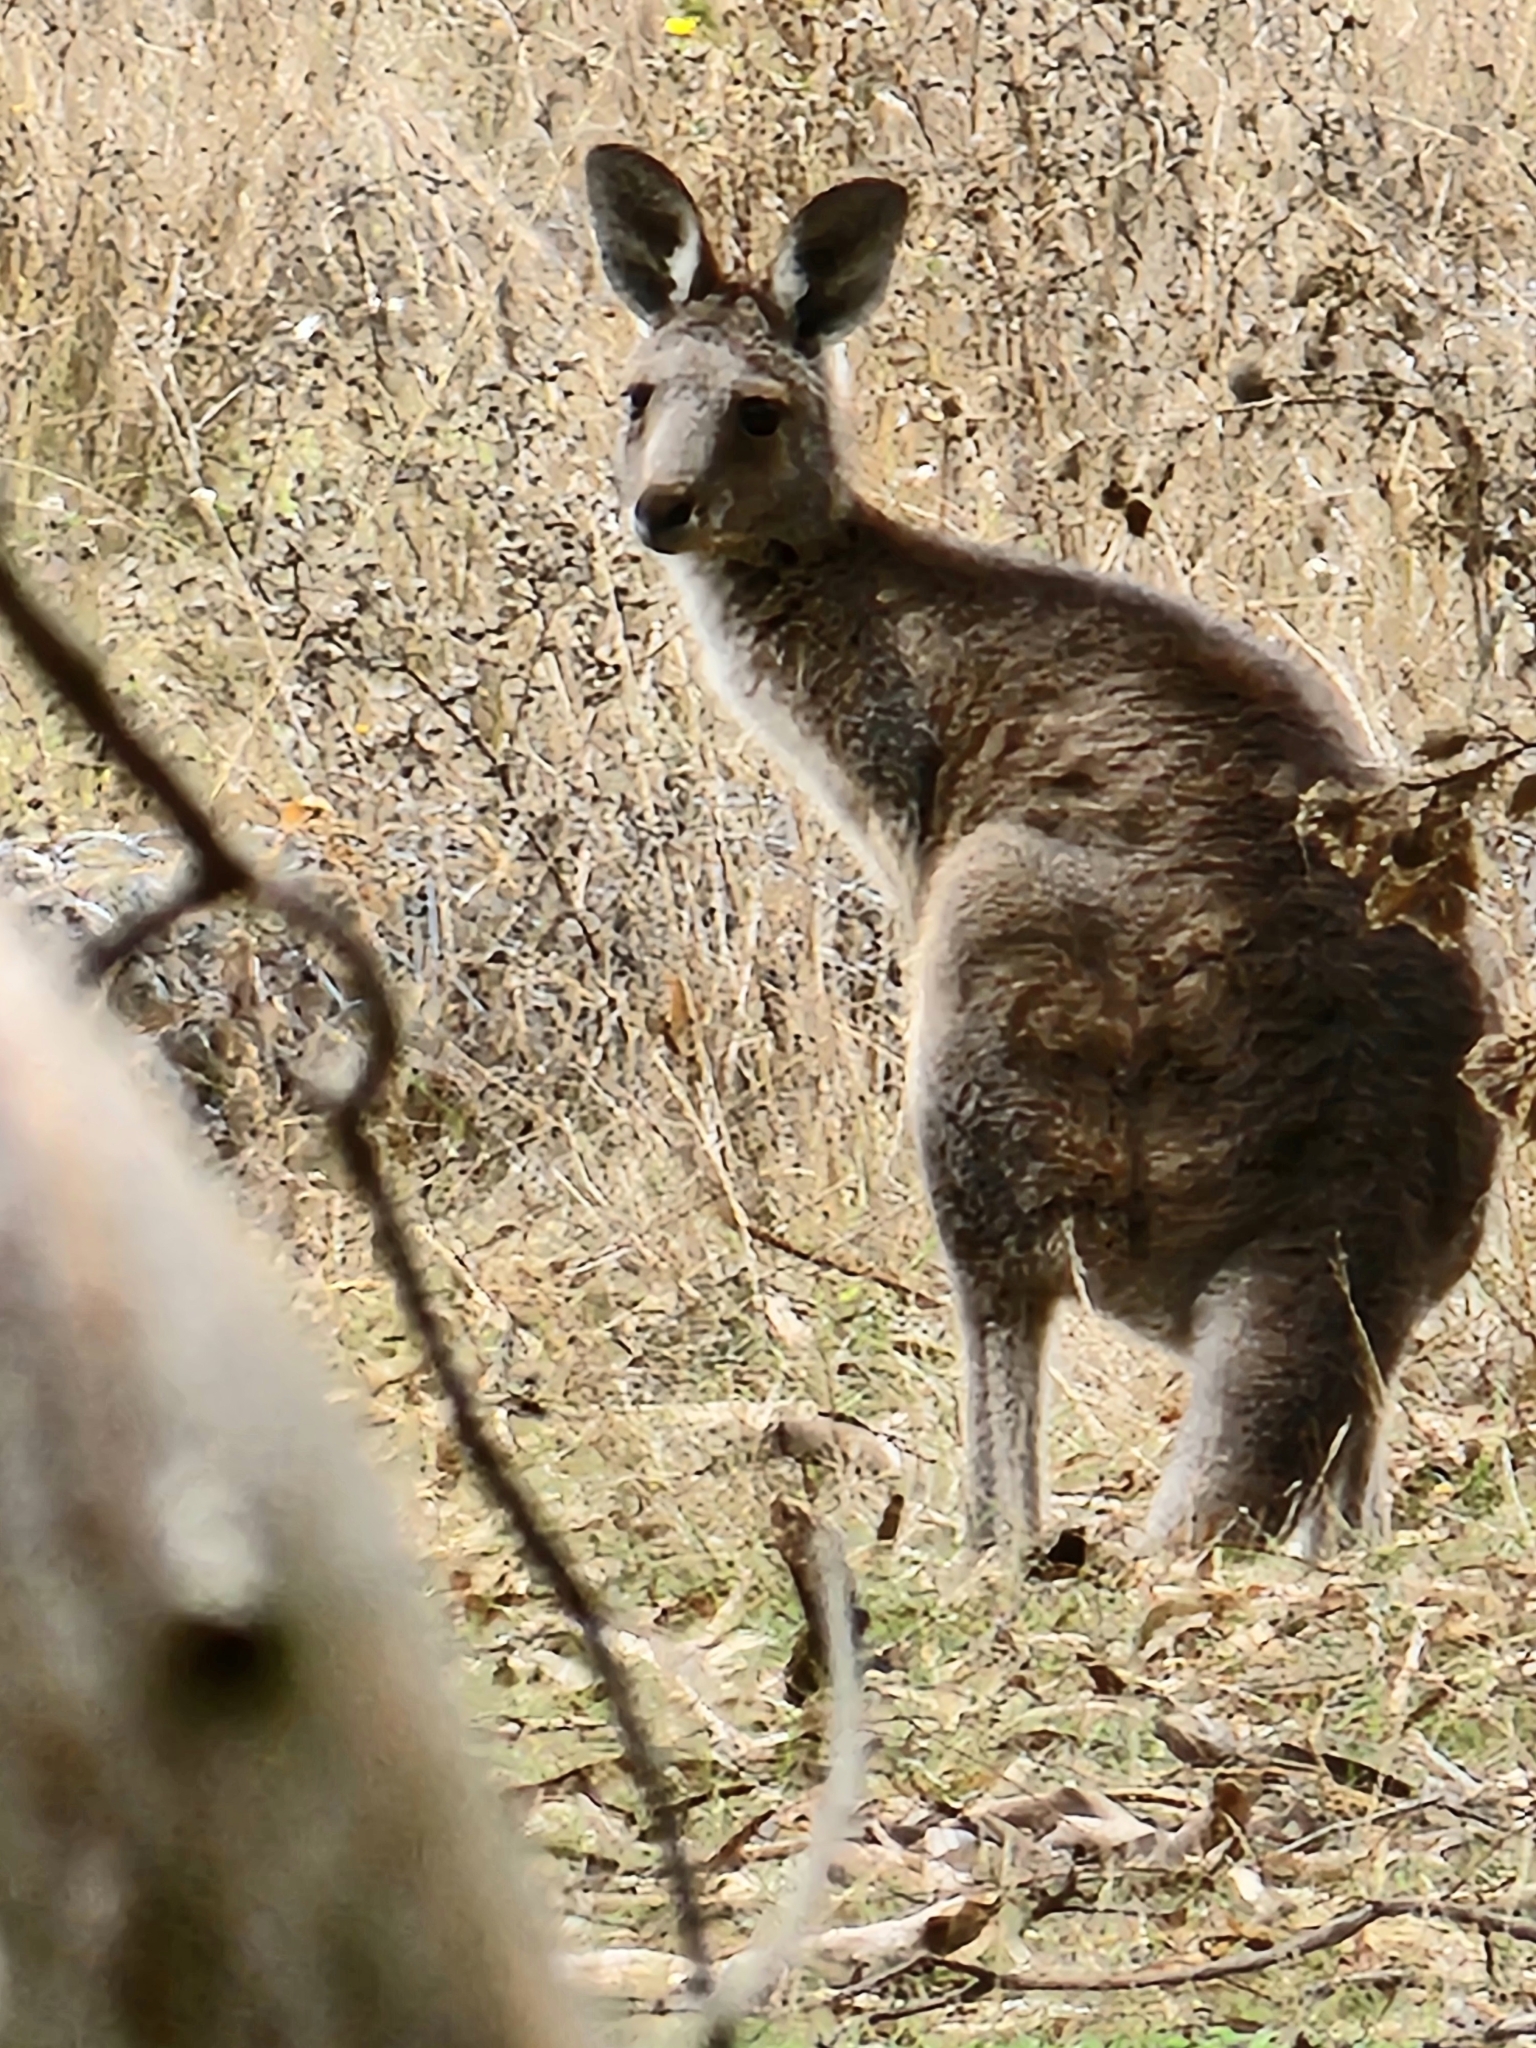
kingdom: Animalia
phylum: Chordata
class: Mammalia
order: Diprotodontia
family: Macropodidae
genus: Macropus
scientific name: Macropus giganteus
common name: Eastern grey kangaroo
